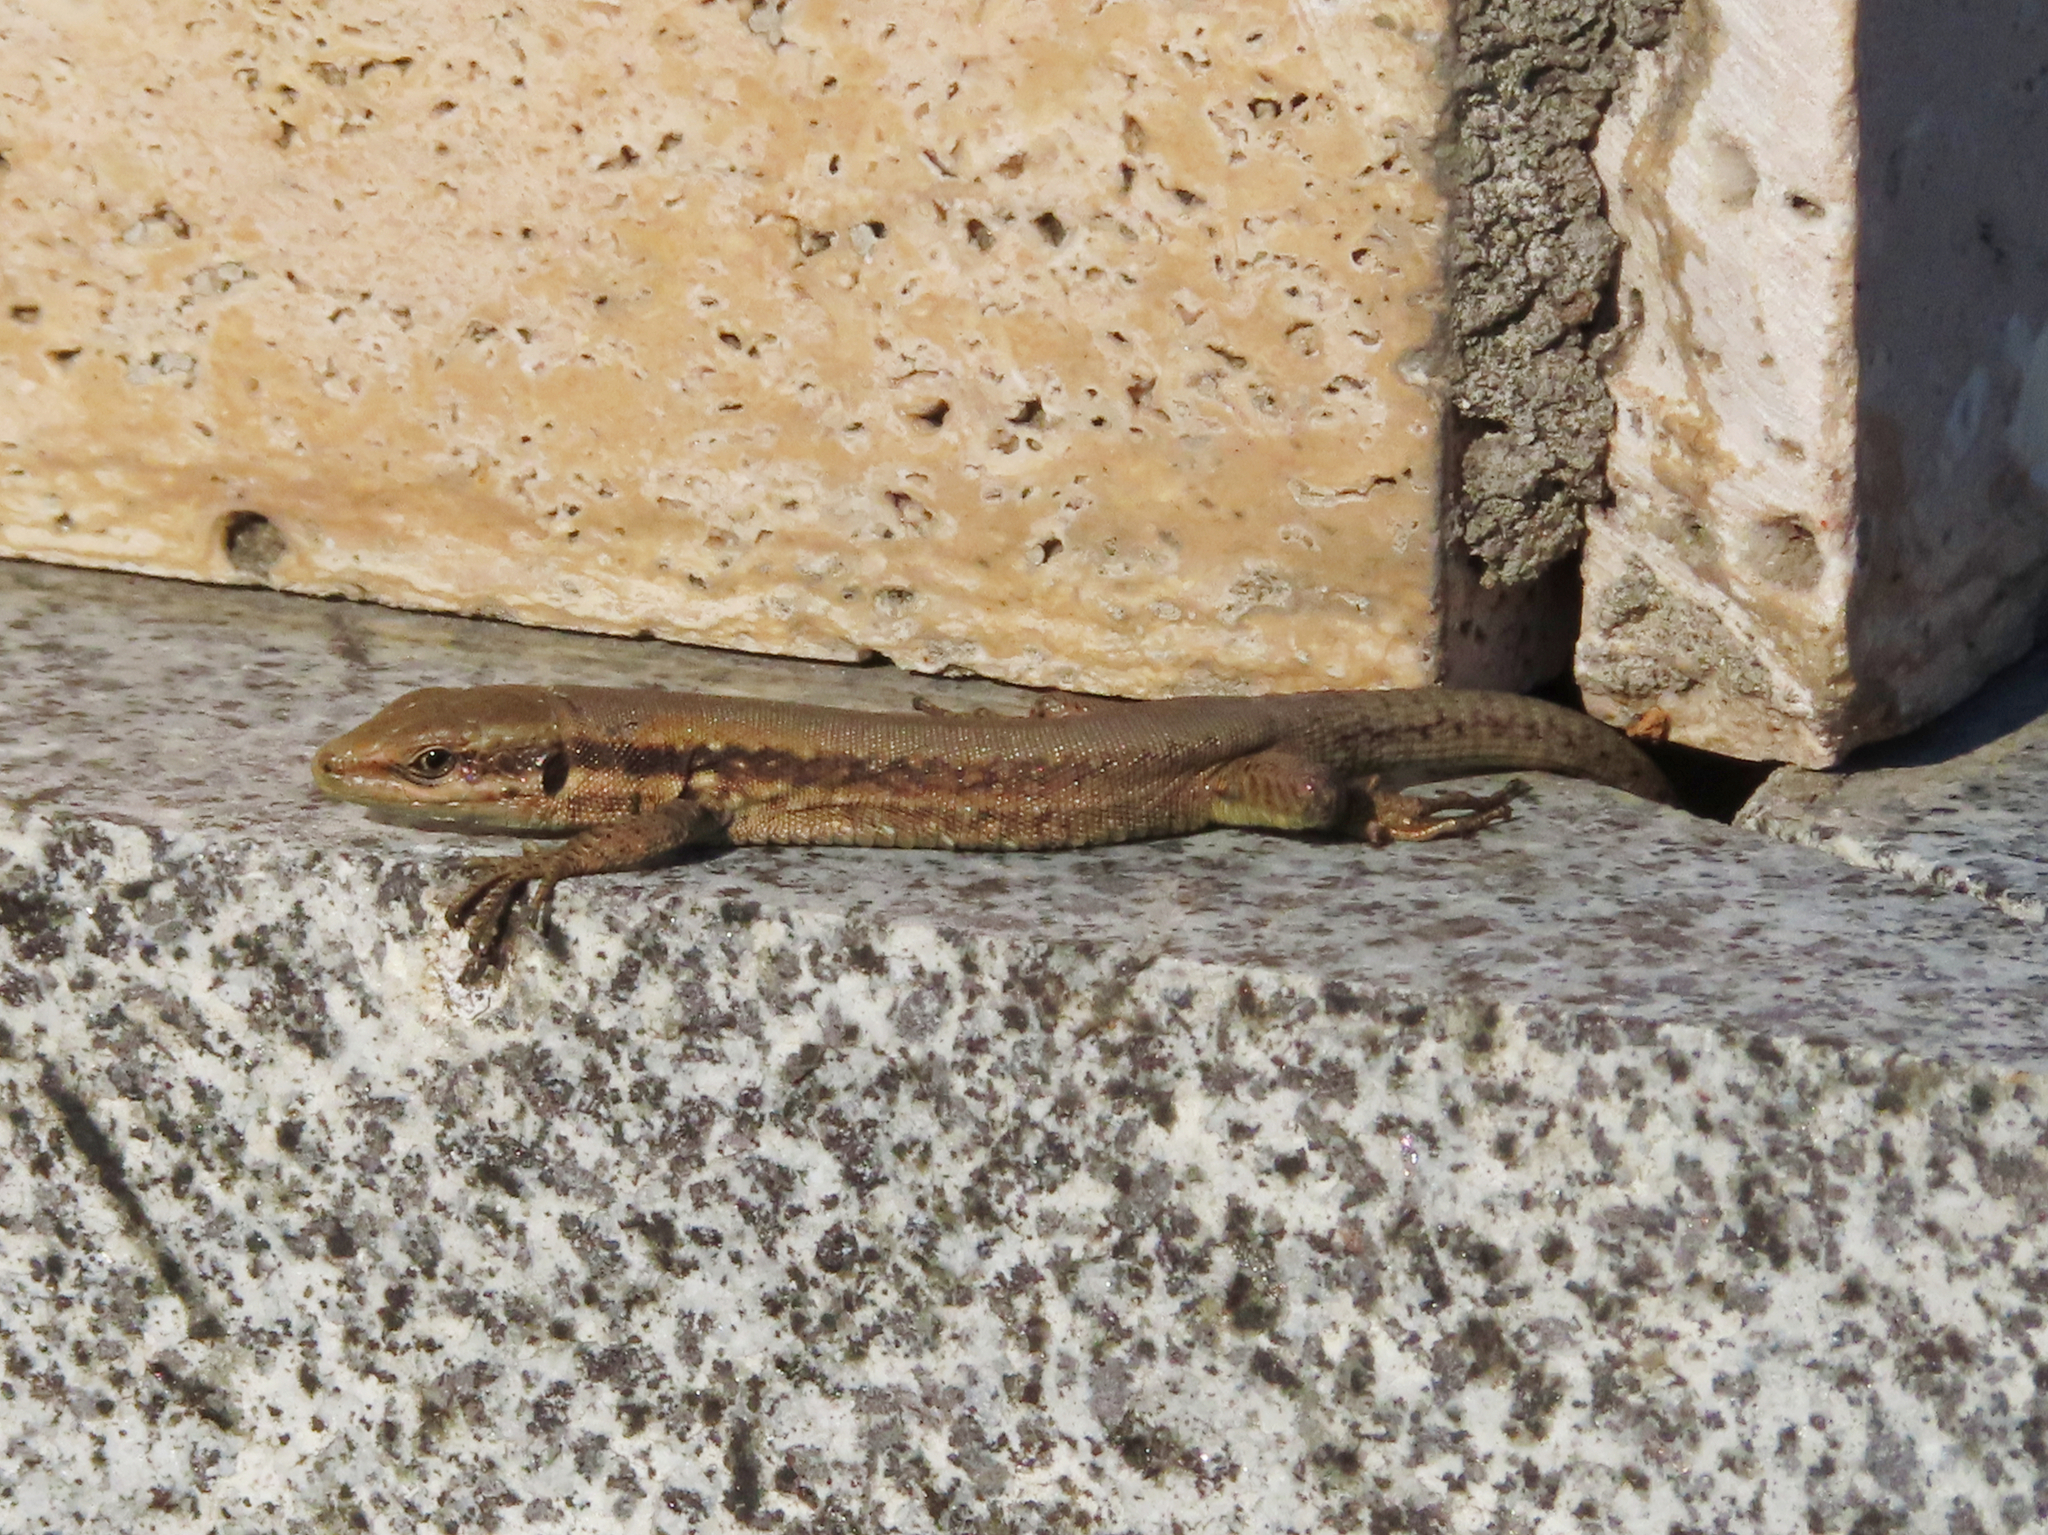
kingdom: Animalia
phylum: Chordata
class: Squamata
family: Lacertidae
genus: Phoenicolacerta
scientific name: Phoenicolacerta laevis
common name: Lebanon lizard
